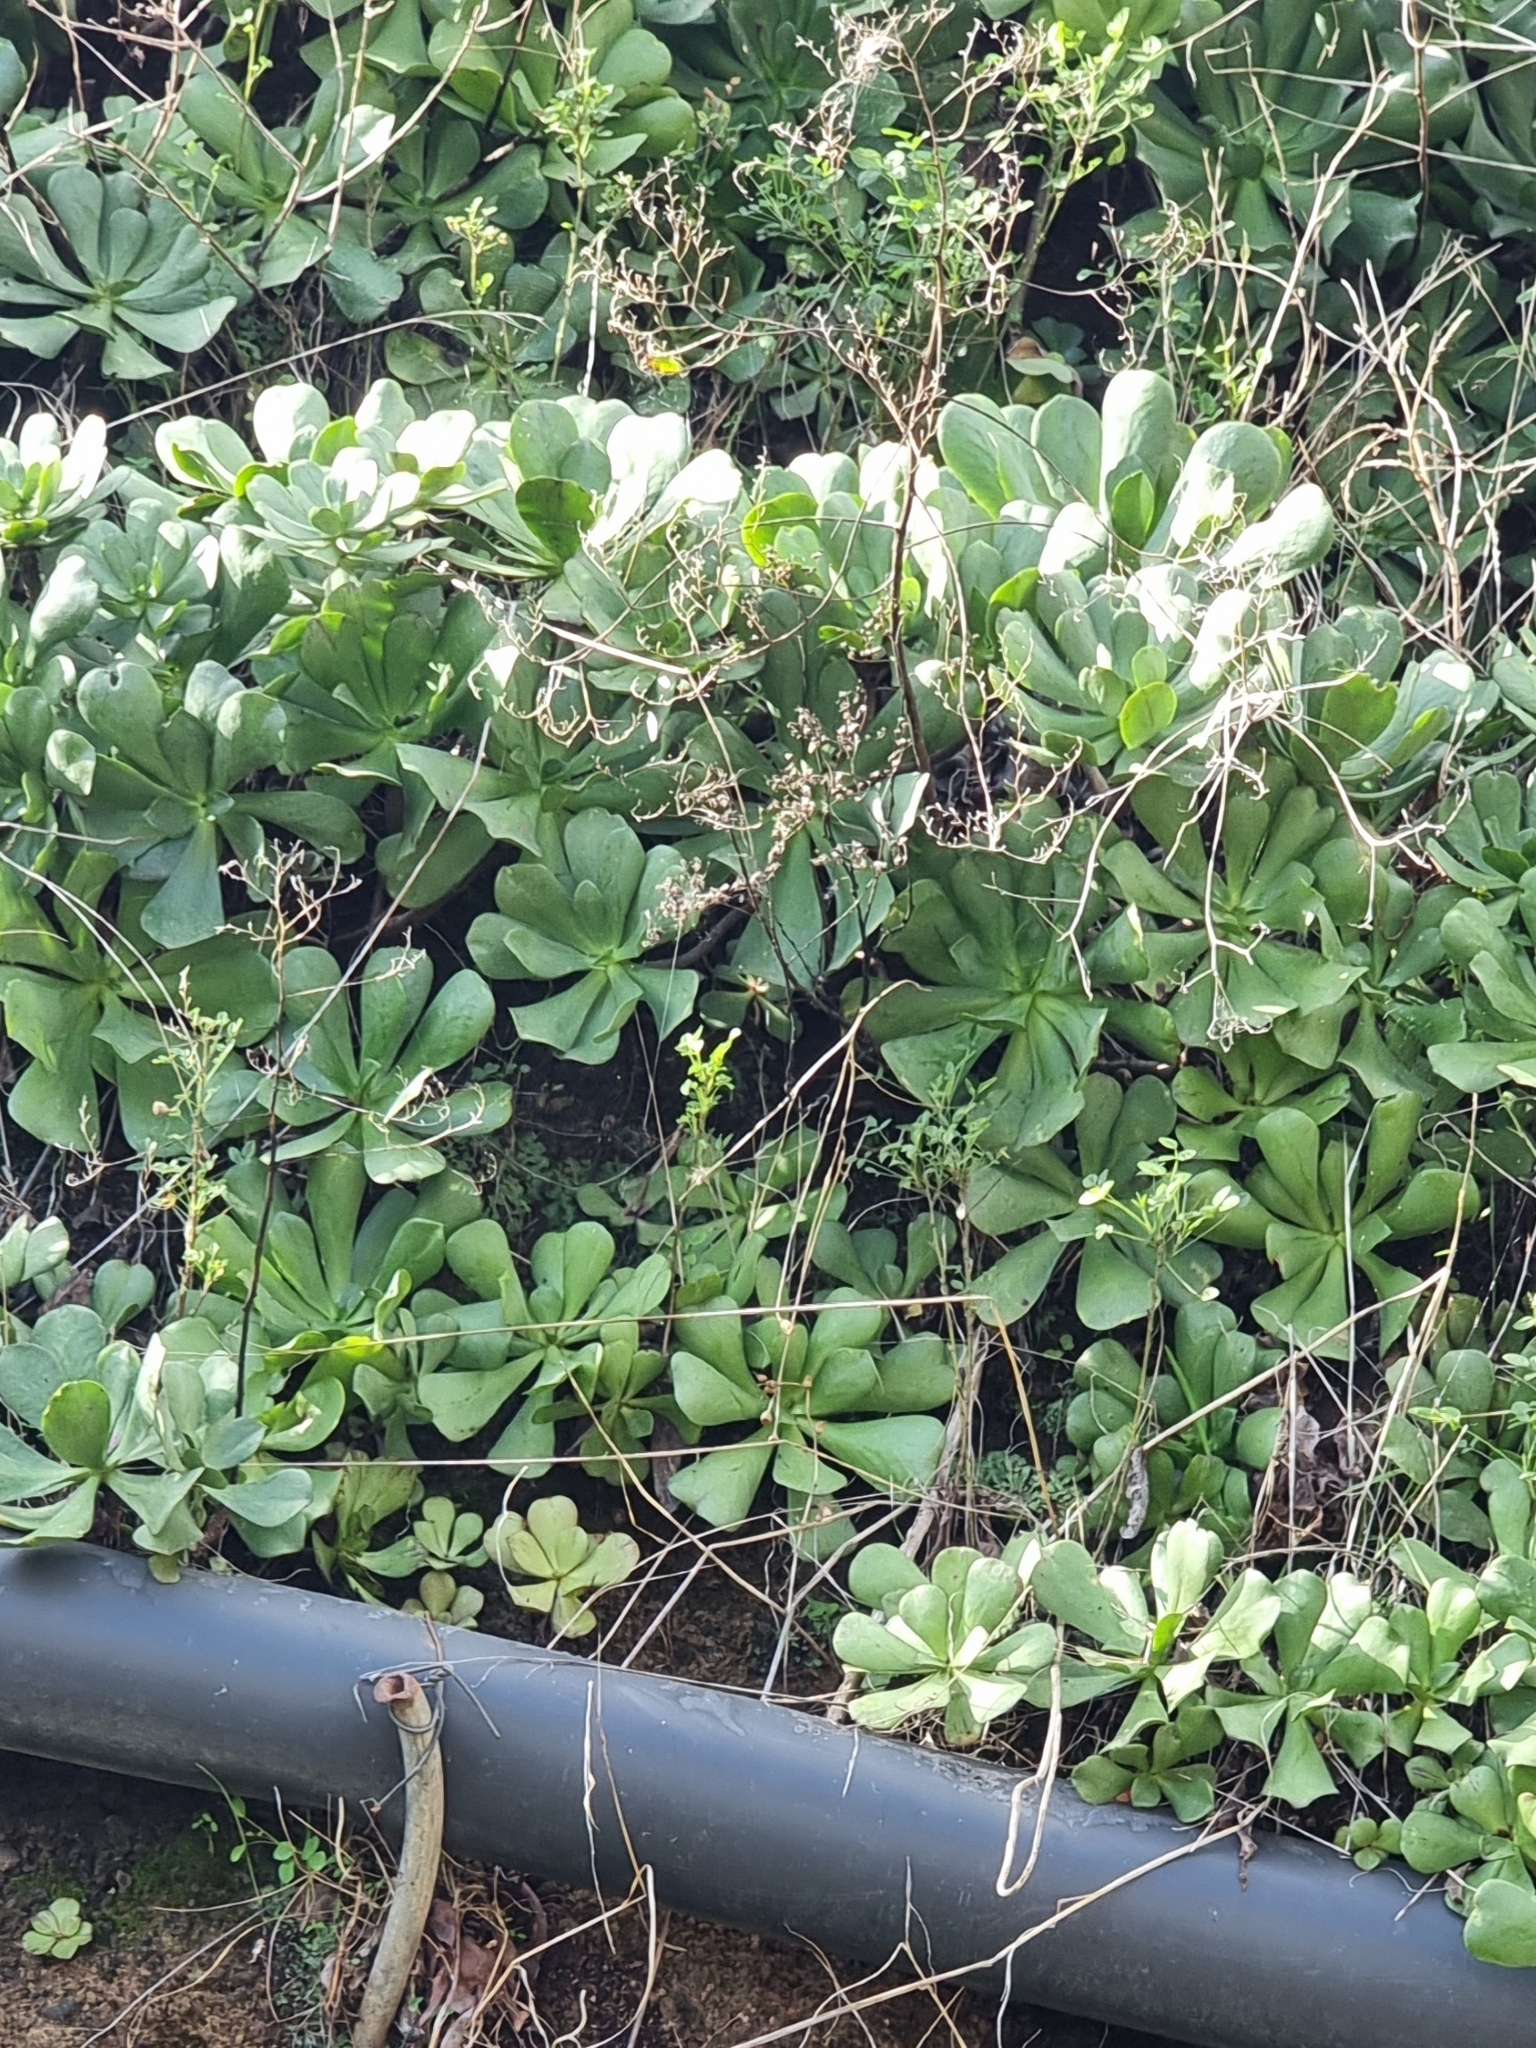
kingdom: Plantae
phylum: Tracheophyta
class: Magnoliopsida
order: Saxifragales
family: Crassulaceae
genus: Aeonium
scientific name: Aeonium glutinosum
